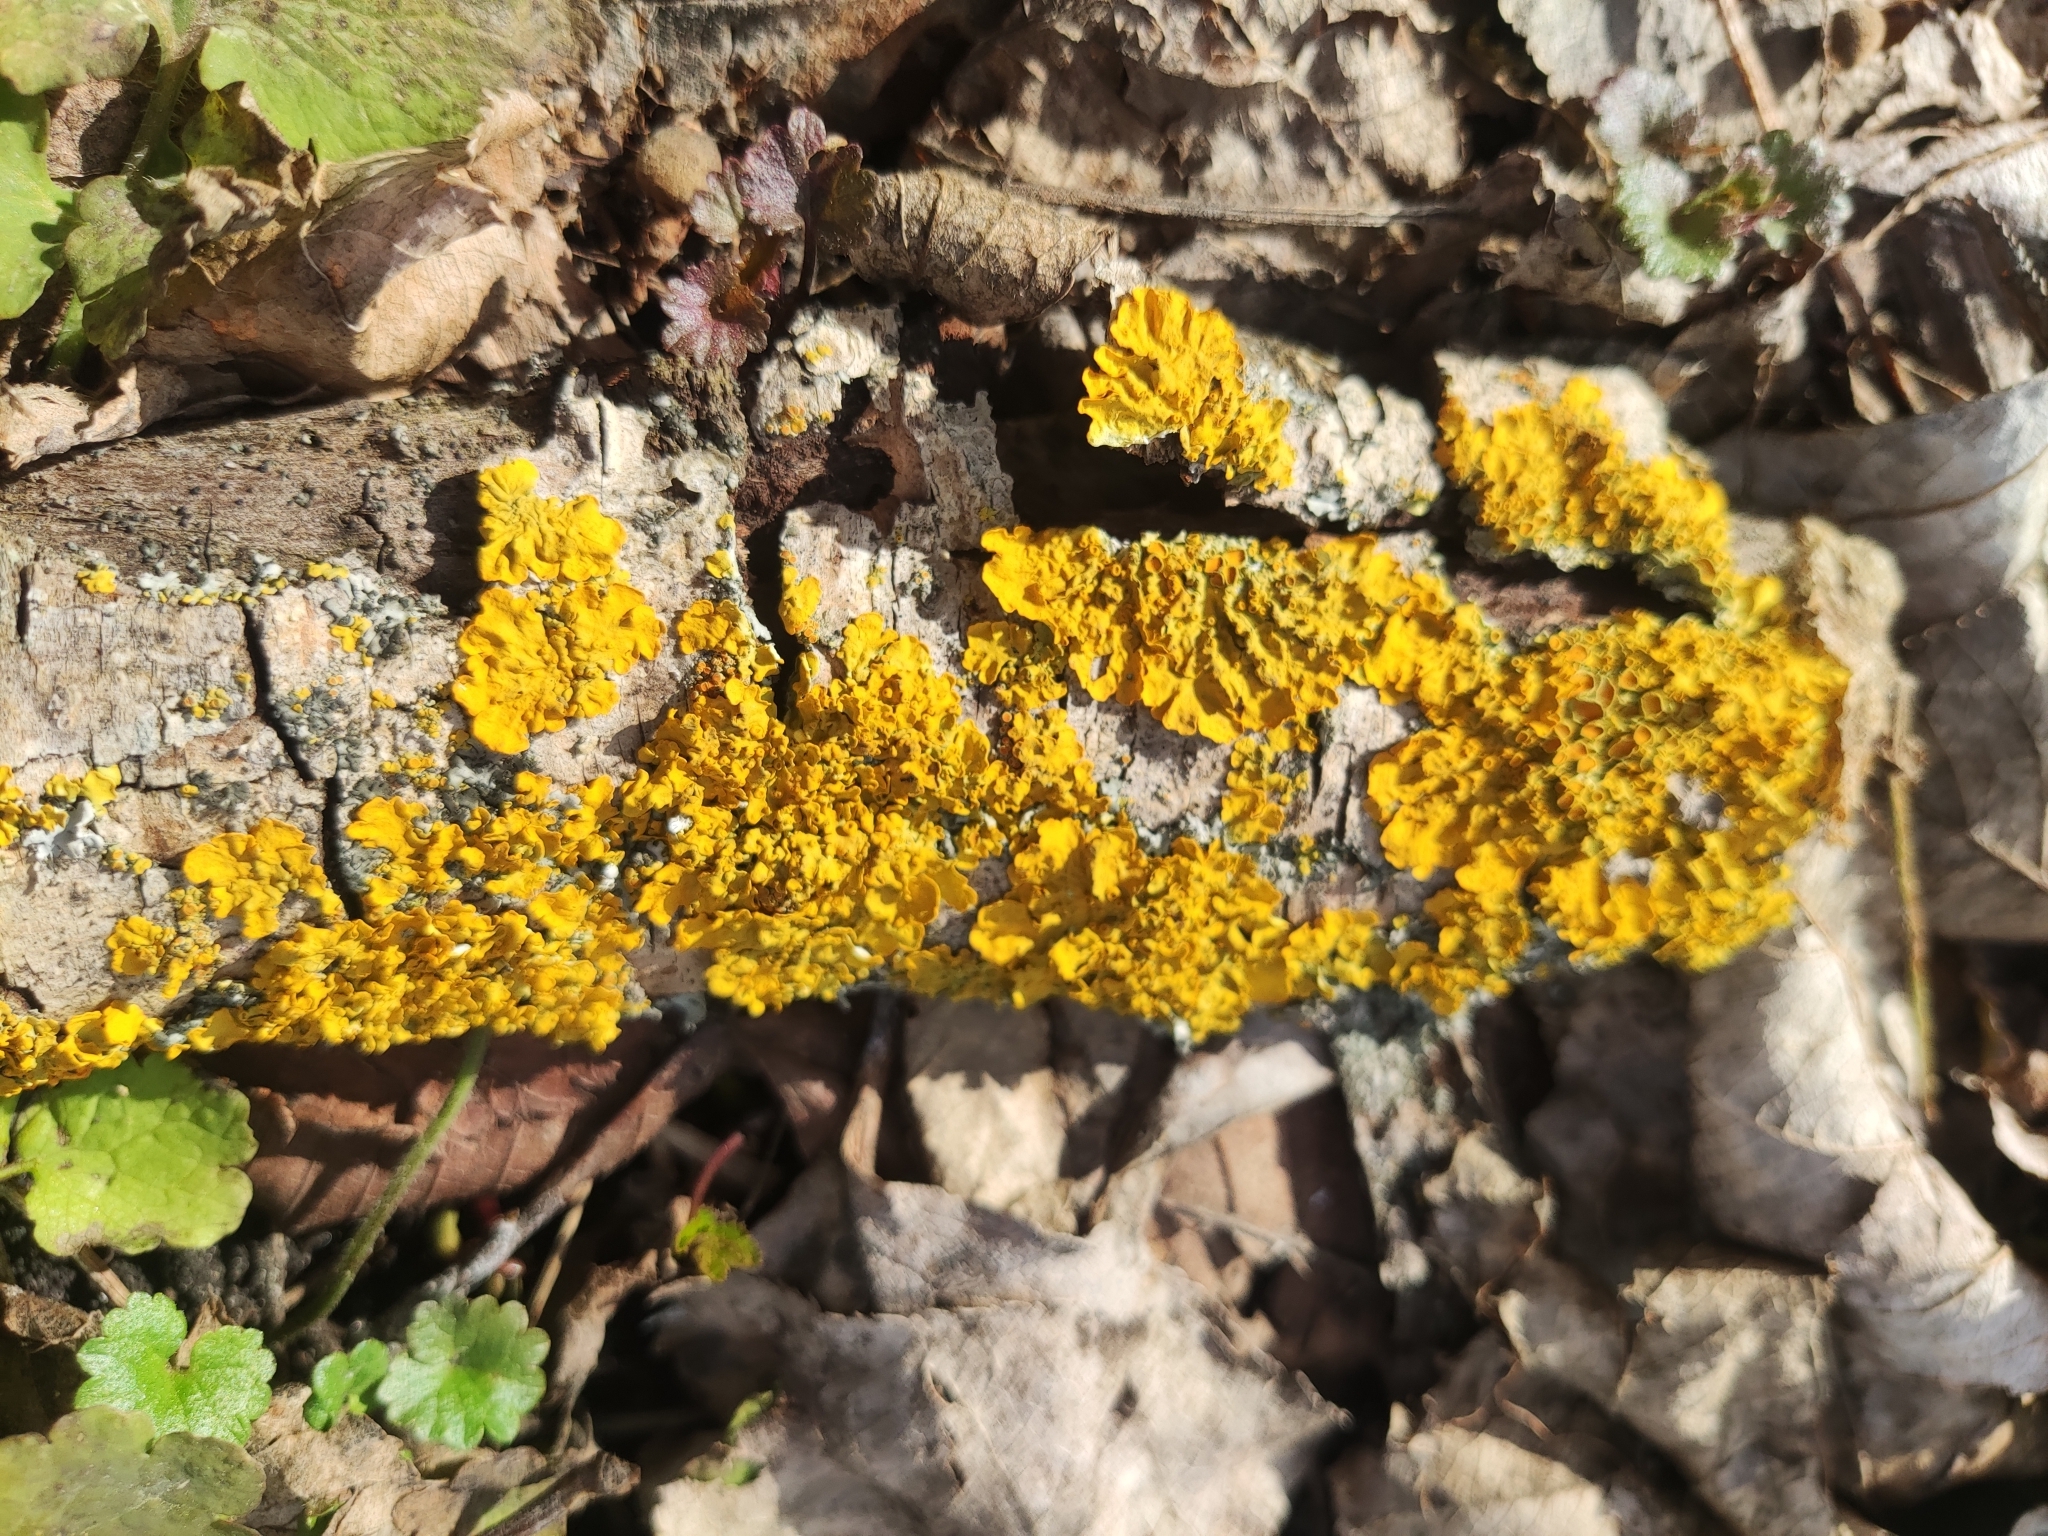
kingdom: Fungi
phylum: Ascomycota
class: Lecanoromycetes
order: Teloschistales
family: Teloschistaceae
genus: Xanthoria
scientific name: Xanthoria parietina
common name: Common orange lichen
